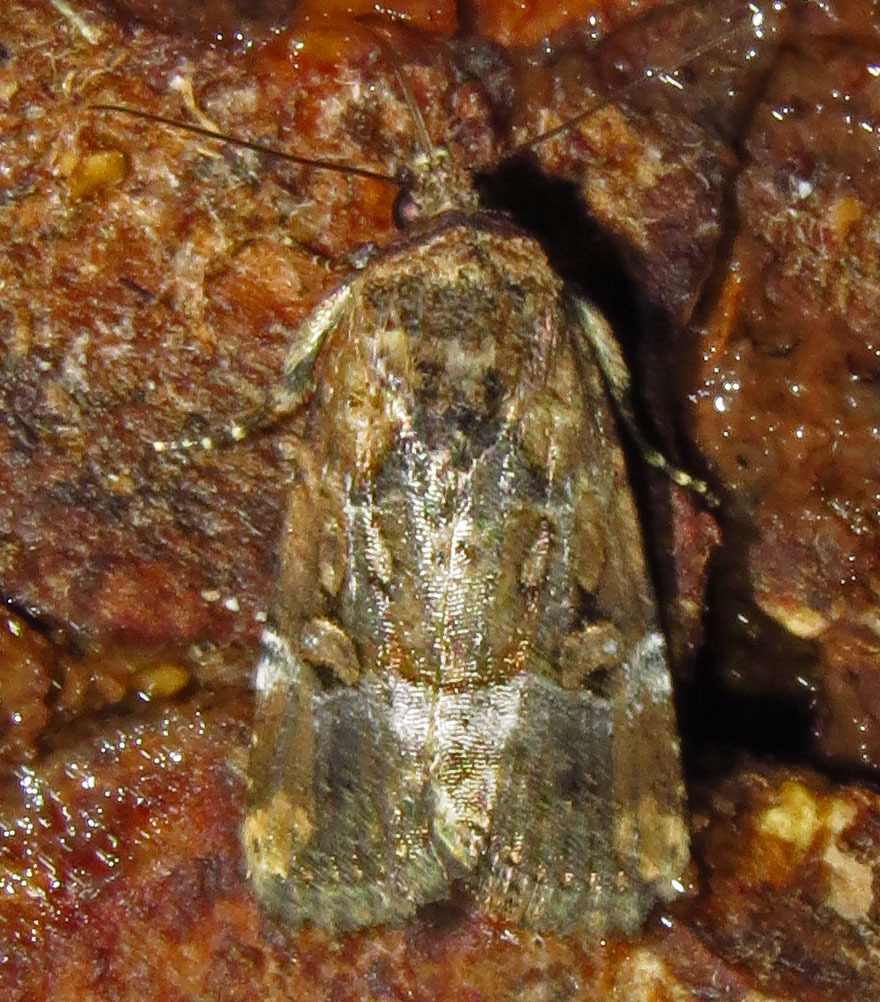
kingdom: Animalia
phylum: Arthropoda
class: Insecta
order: Lepidoptera
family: Noctuidae
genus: Elaphria
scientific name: Elaphria chalcedonia
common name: Chalcedony midget
